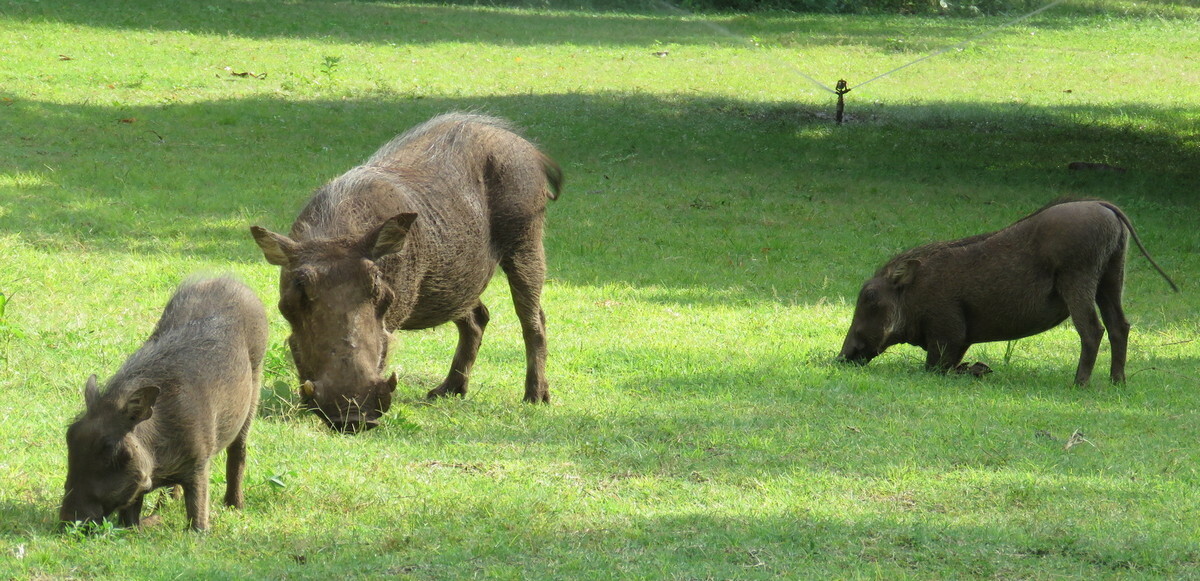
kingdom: Animalia
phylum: Chordata
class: Mammalia
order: Artiodactyla
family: Suidae
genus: Phacochoerus
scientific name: Phacochoerus africanus
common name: Common warthog
